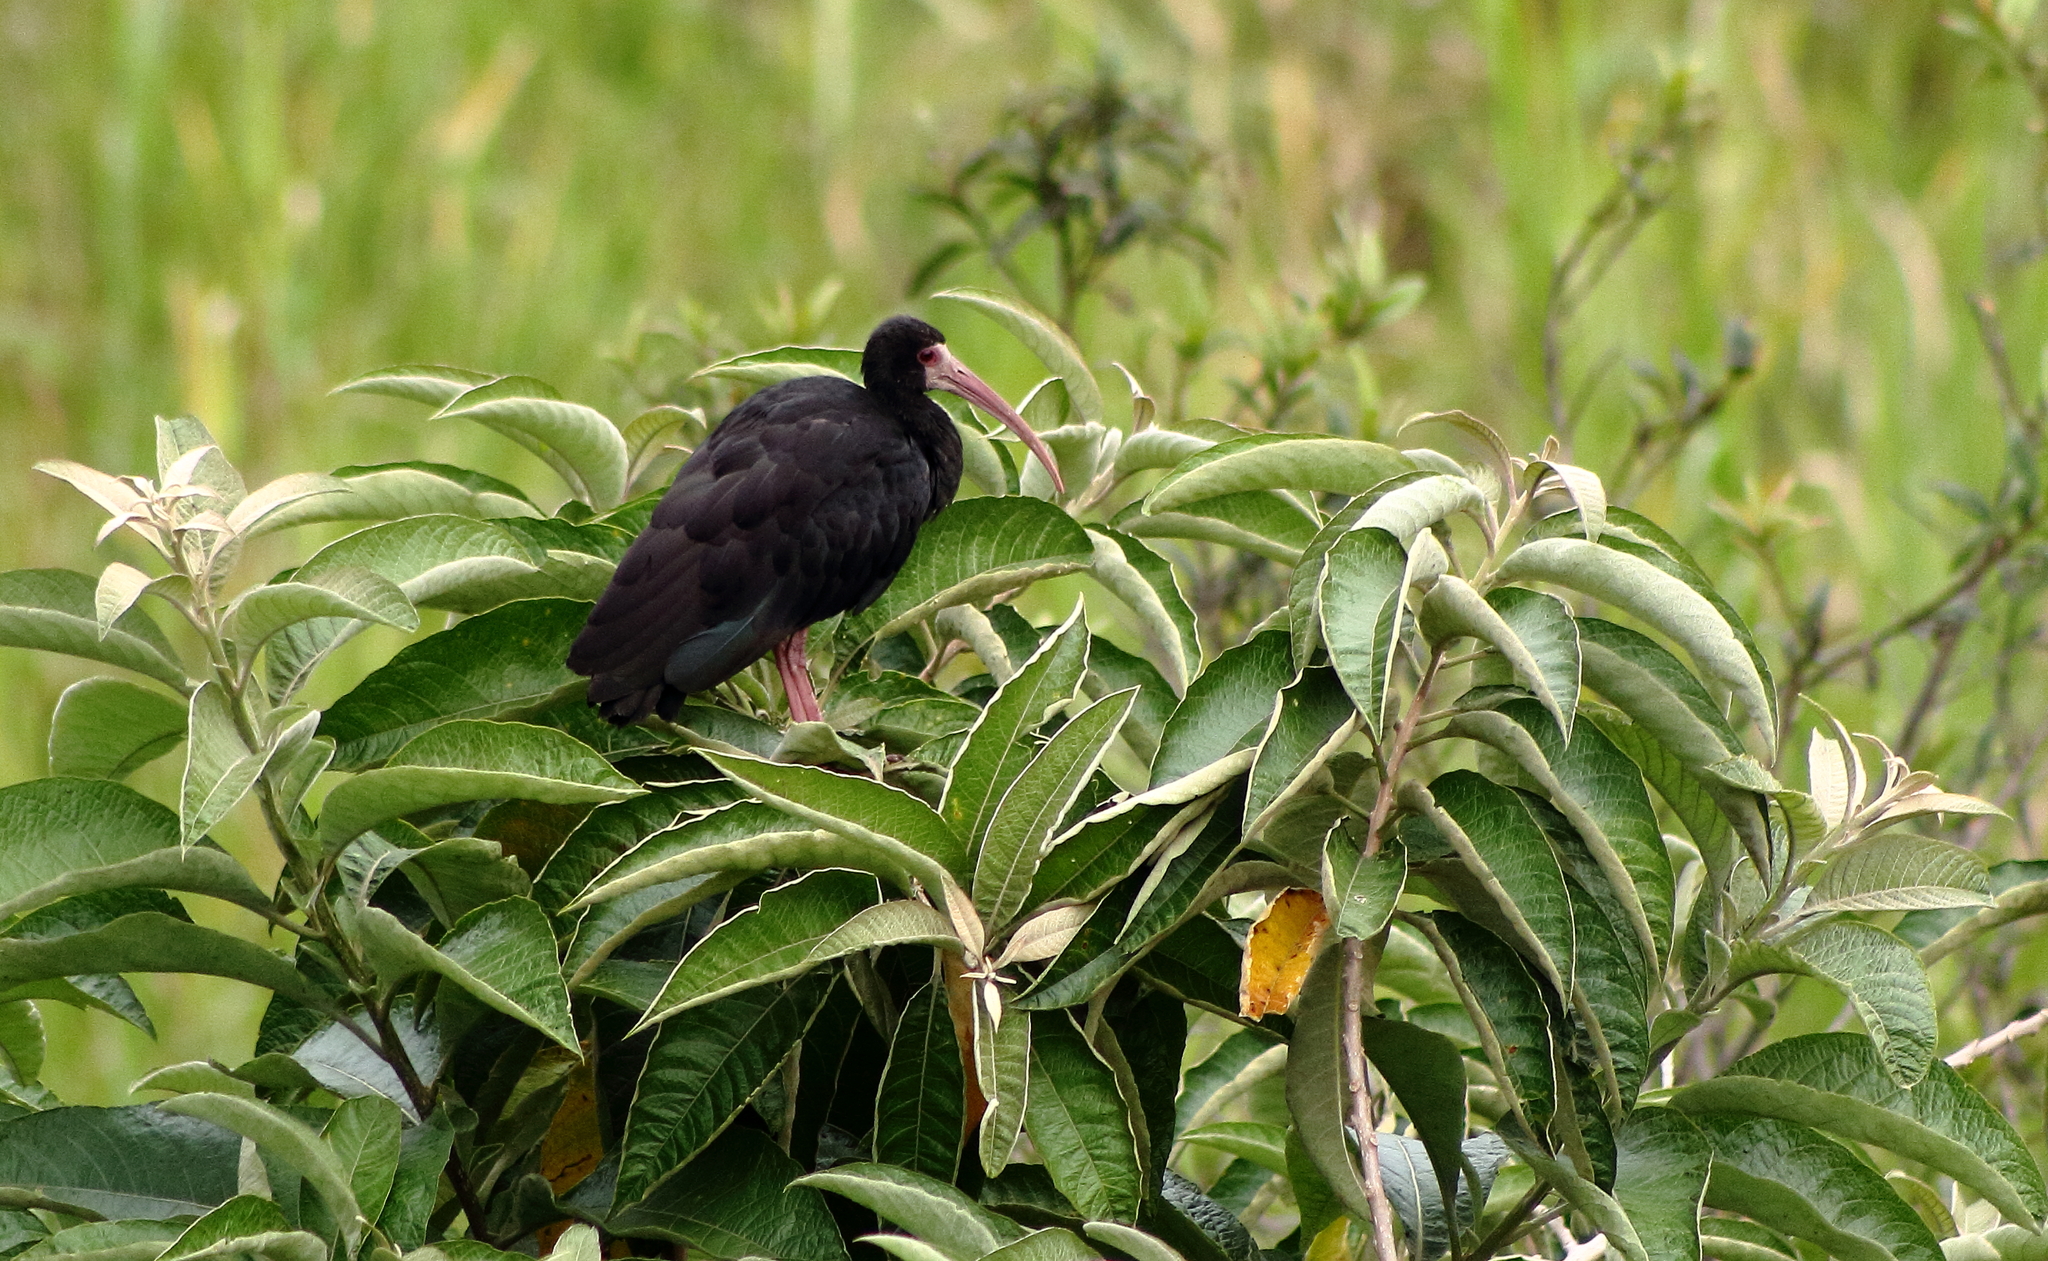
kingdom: Animalia
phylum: Chordata
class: Aves
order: Pelecaniformes
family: Threskiornithidae
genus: Phimosus
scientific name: Phimosus infuscatus
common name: Bare-faced ibis
